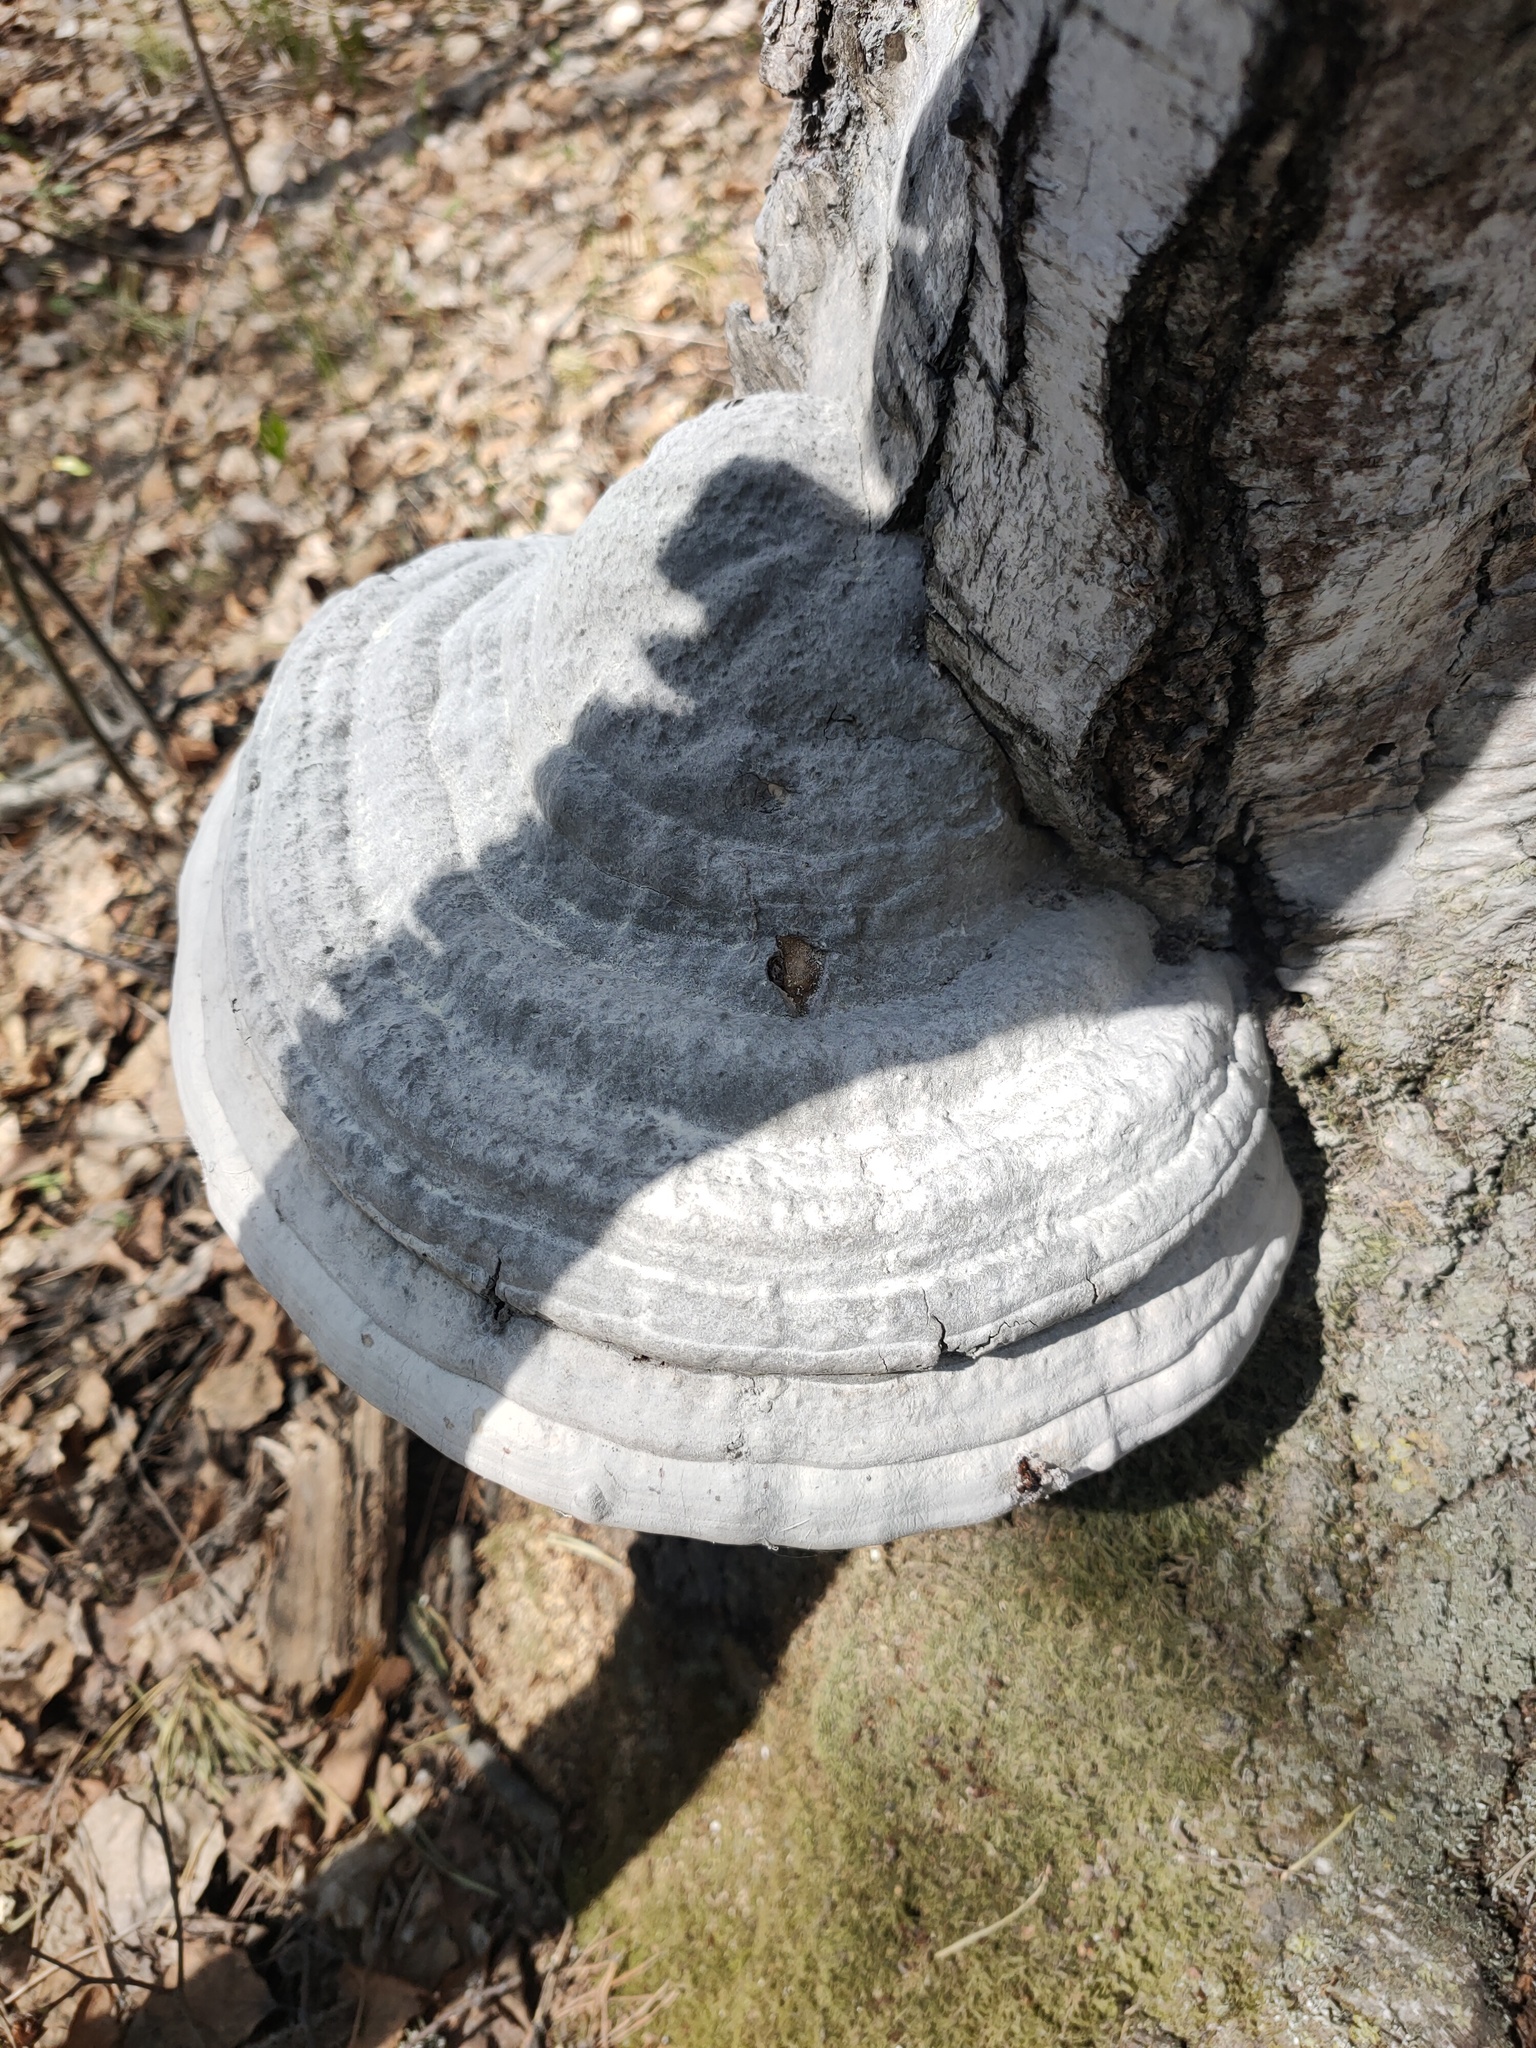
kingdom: Fungi
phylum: Basidiomycota
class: Agaricomycetes
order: Polyporales
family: Polyporaceae
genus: Fomes
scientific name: Fomes fomentarius
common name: Hoof fungus
